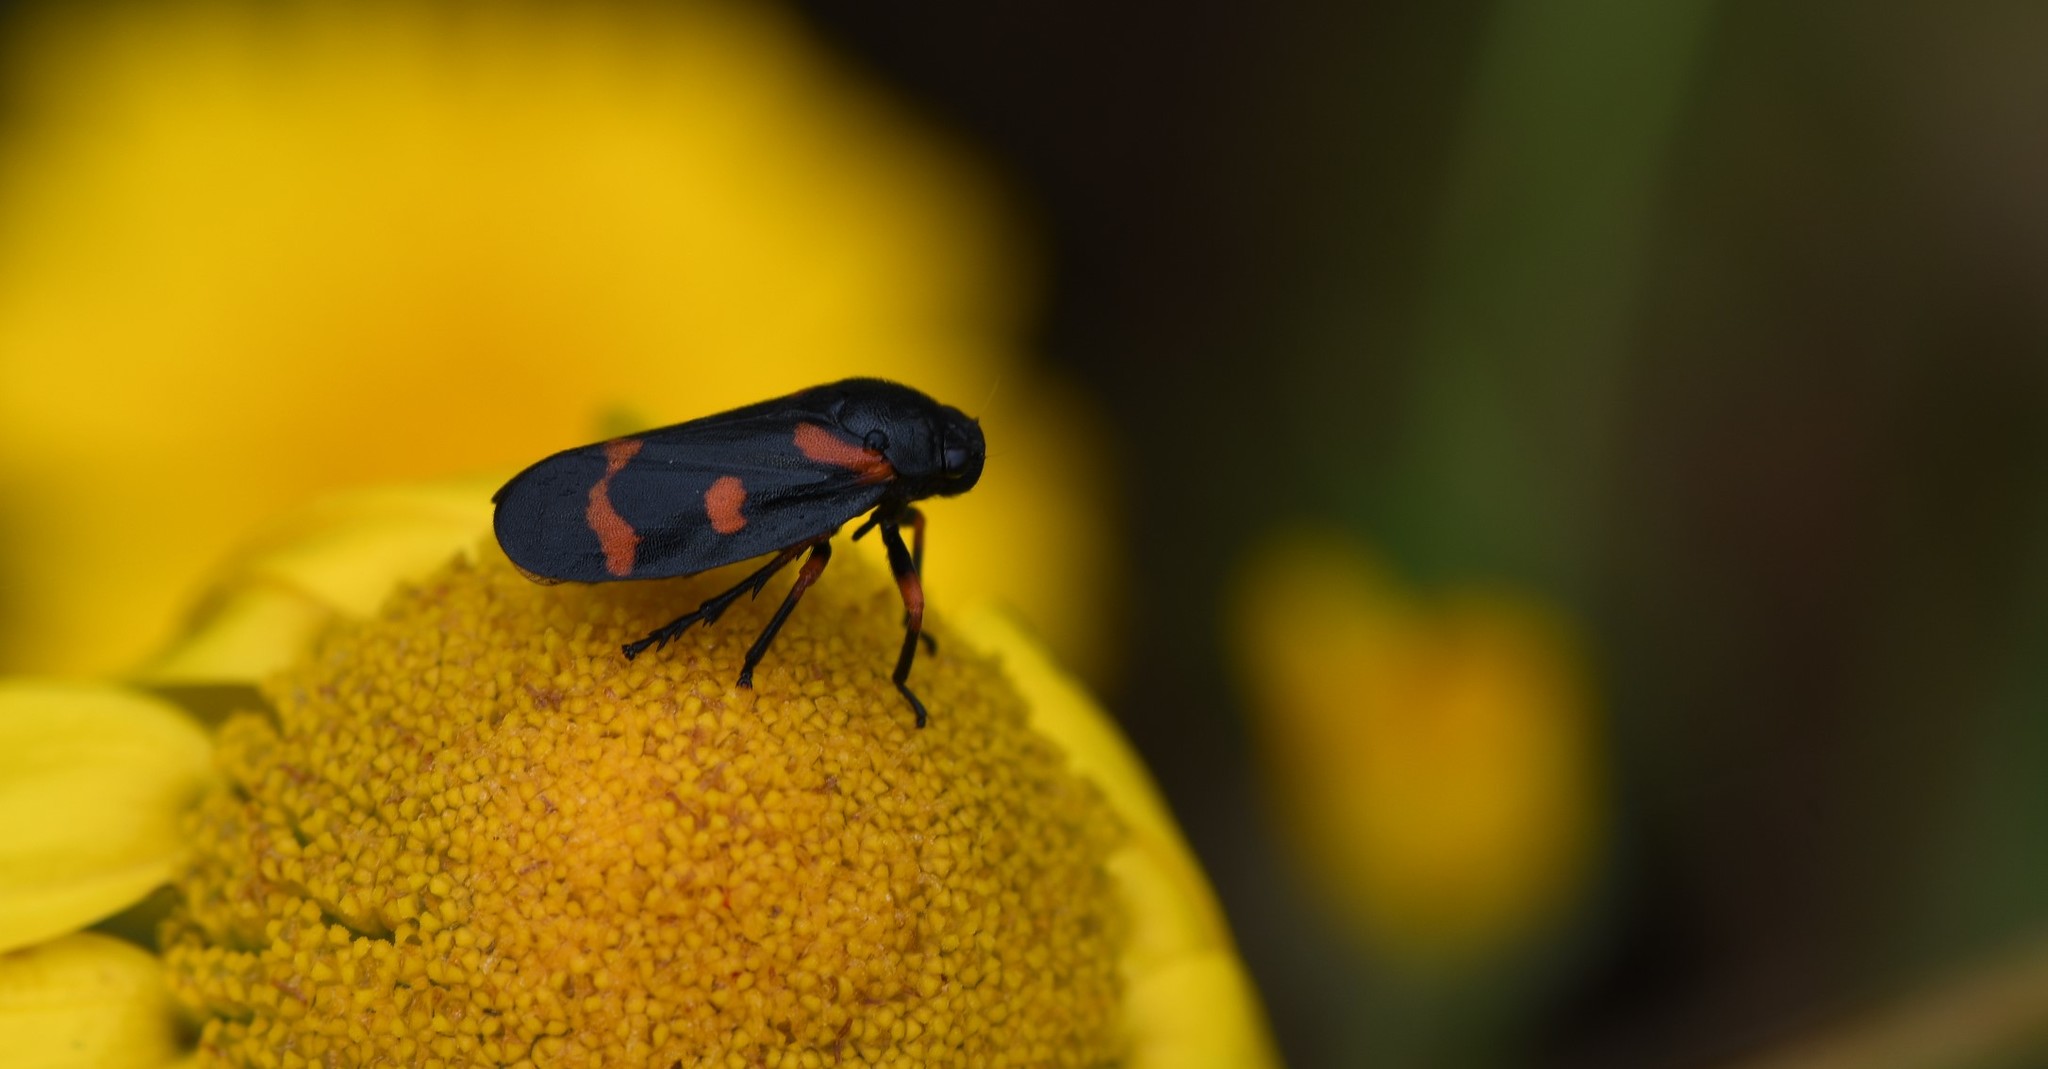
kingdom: Animalia
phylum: Arthropoda
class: Insecta
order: Hemiptera
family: Cercopidae
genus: Cercopis
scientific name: Cercopis intermedia
